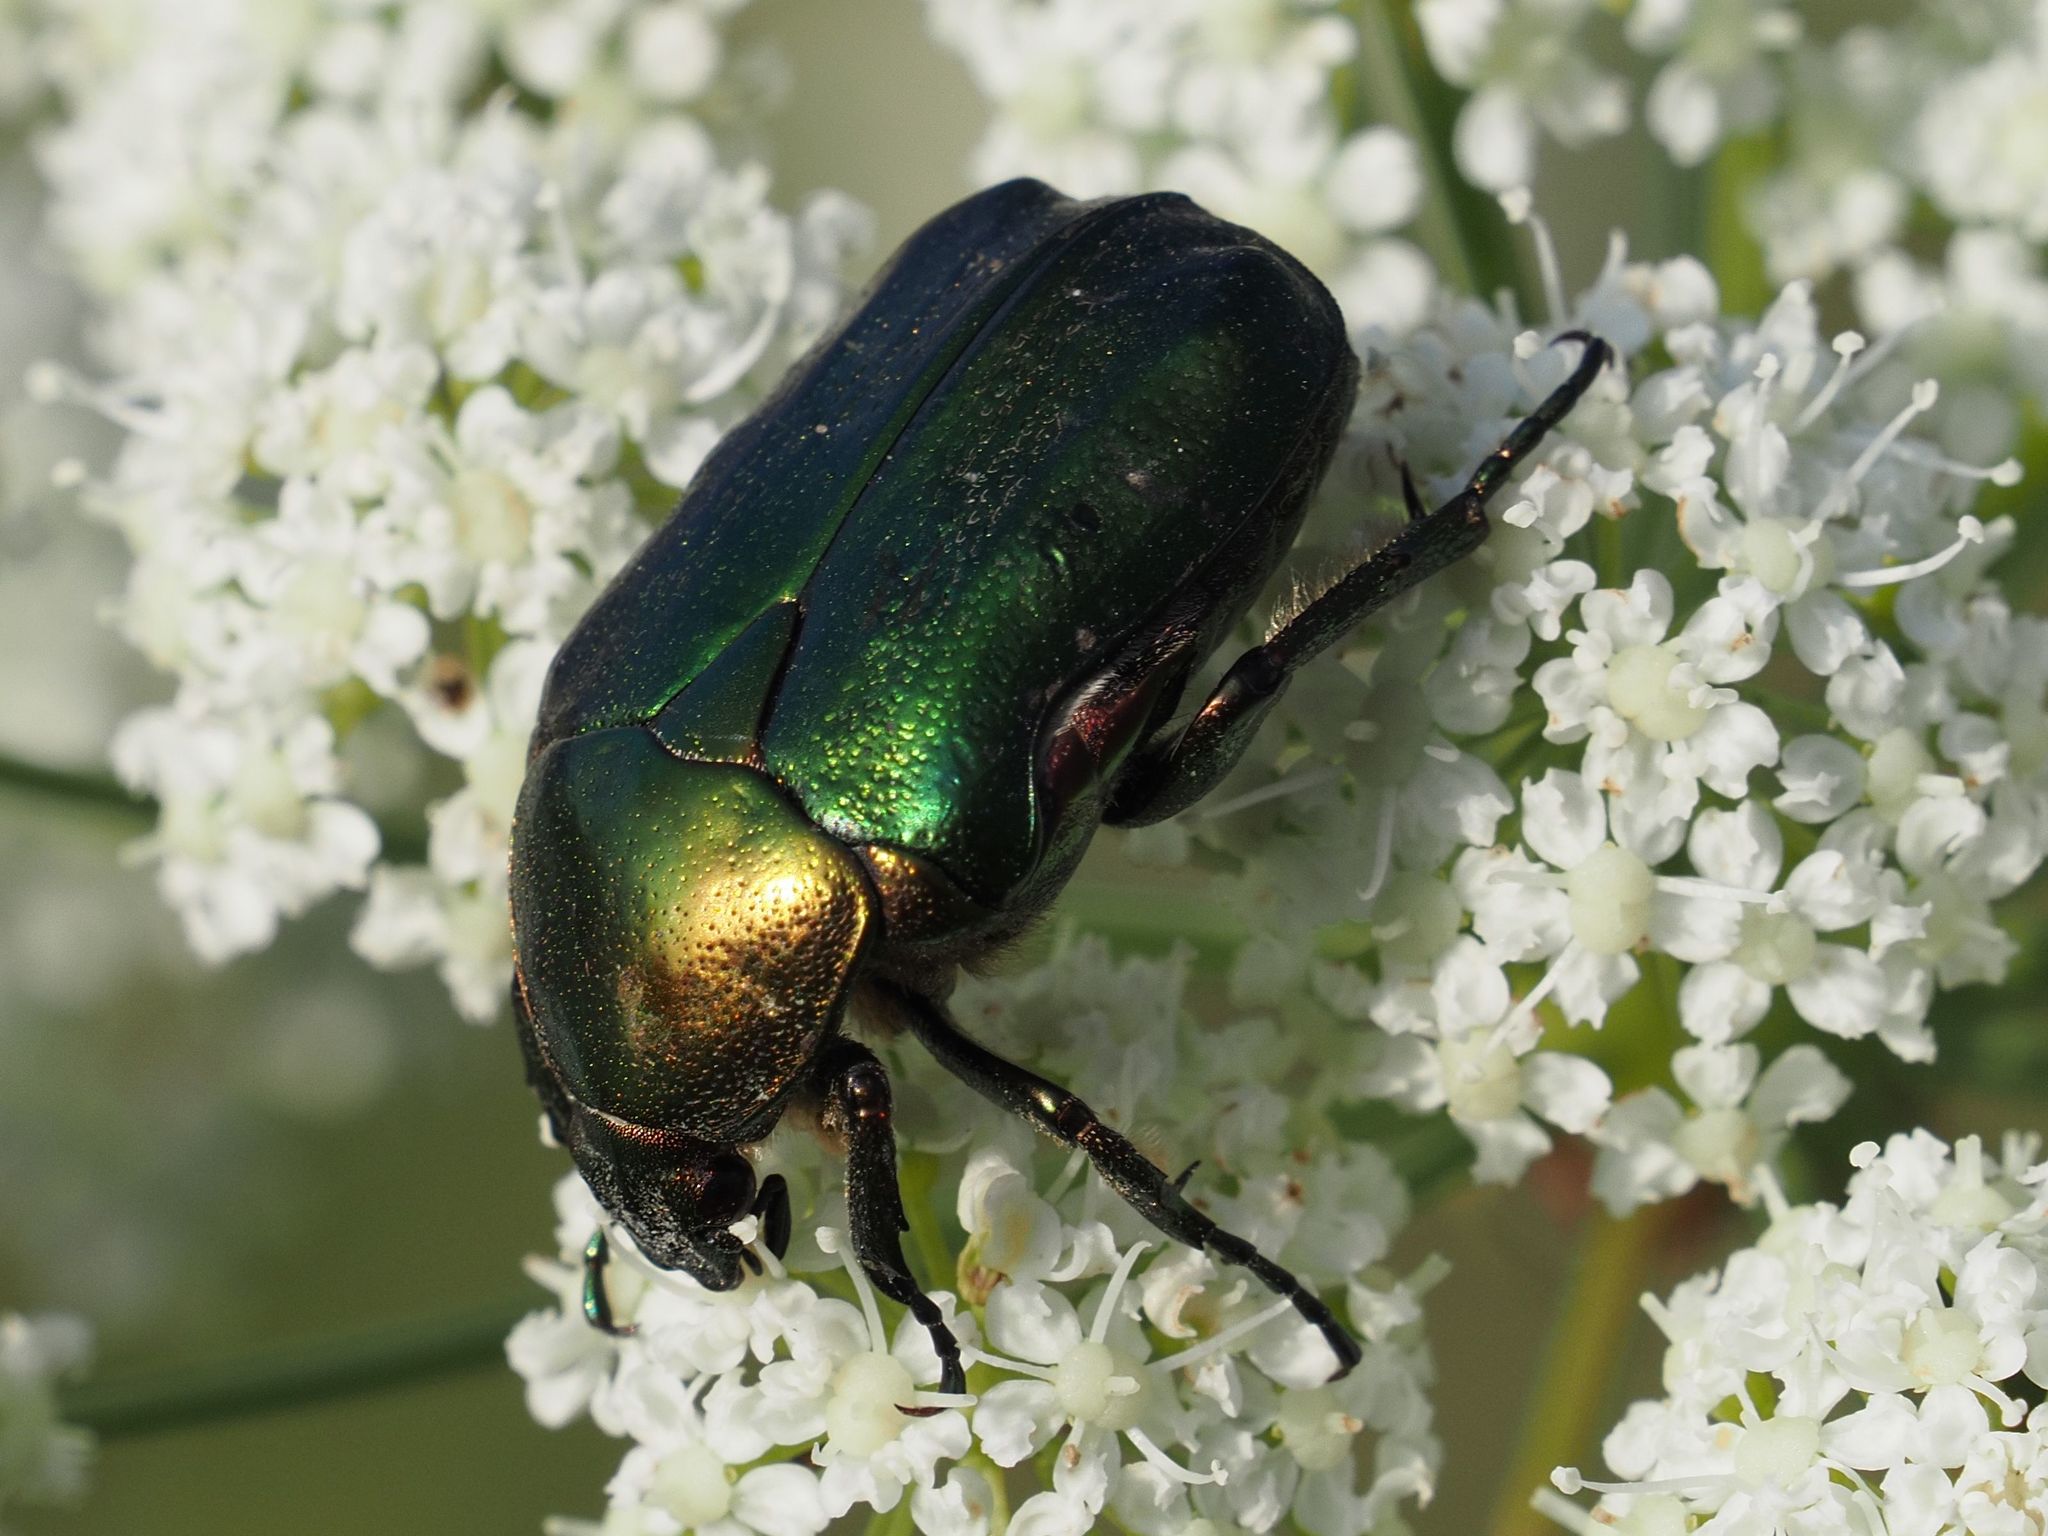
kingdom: Animalia
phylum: Arthropoda
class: Insecta
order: Coleoptera
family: Scarabaeidae
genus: Cetonia
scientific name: Cetonia aurata
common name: Rose chafer
